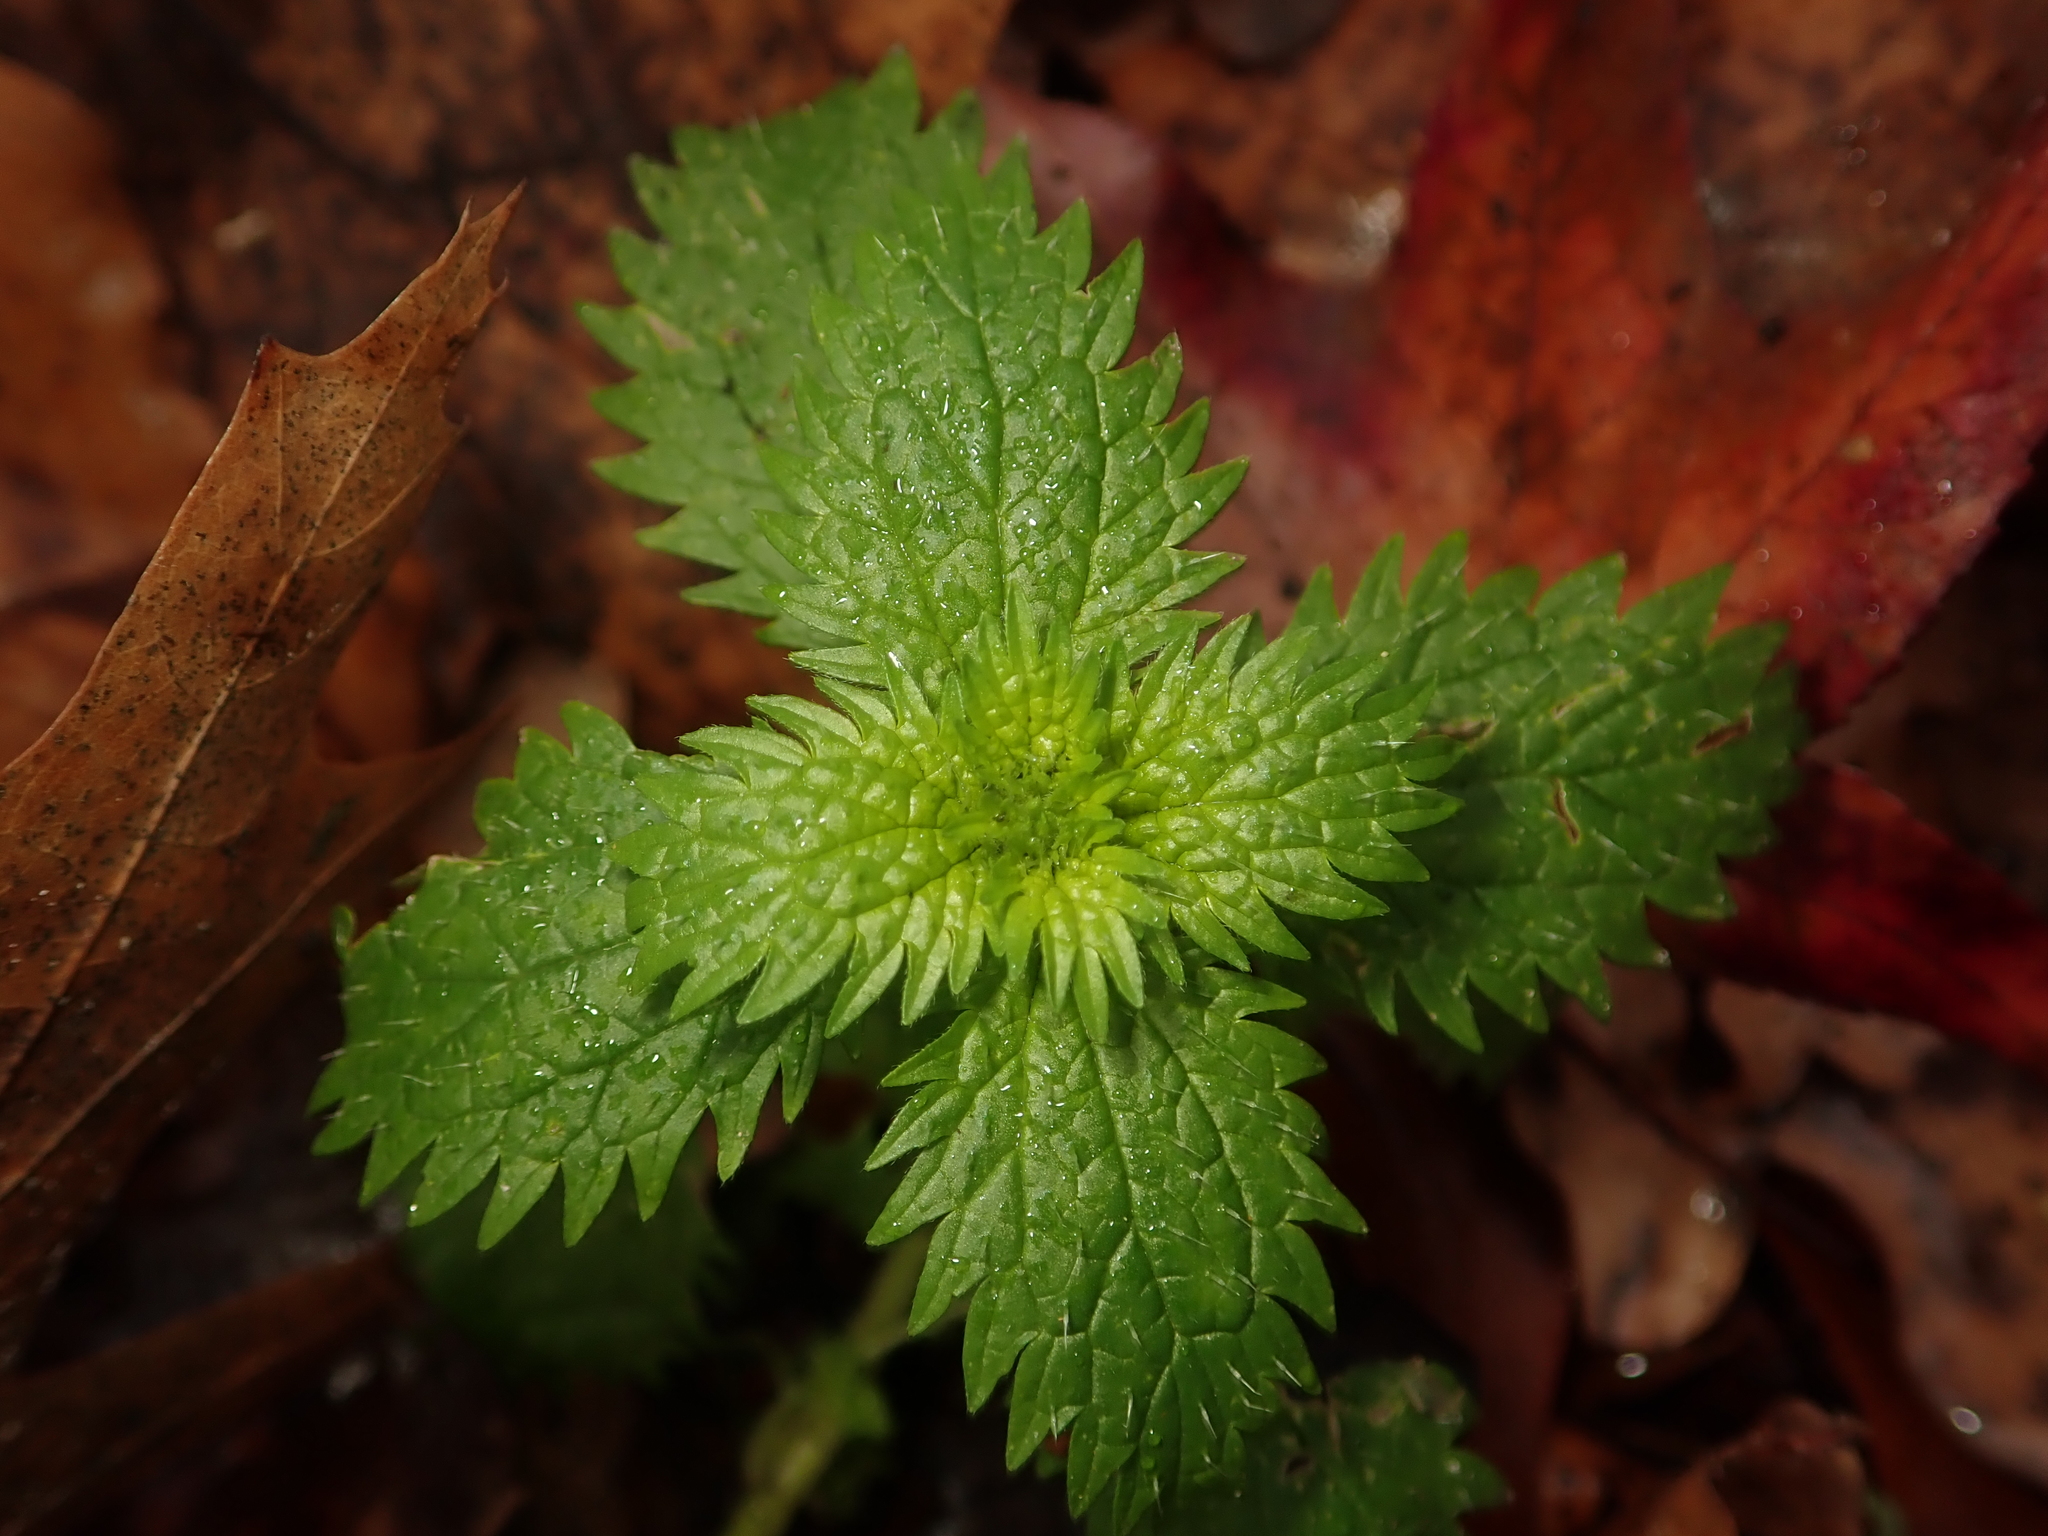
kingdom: Plantae
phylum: Tracheophyta
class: Magnoliopsida
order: Rosales
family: Urticaceae
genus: Urtica
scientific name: Urtica urens
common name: Dwarf nettle
